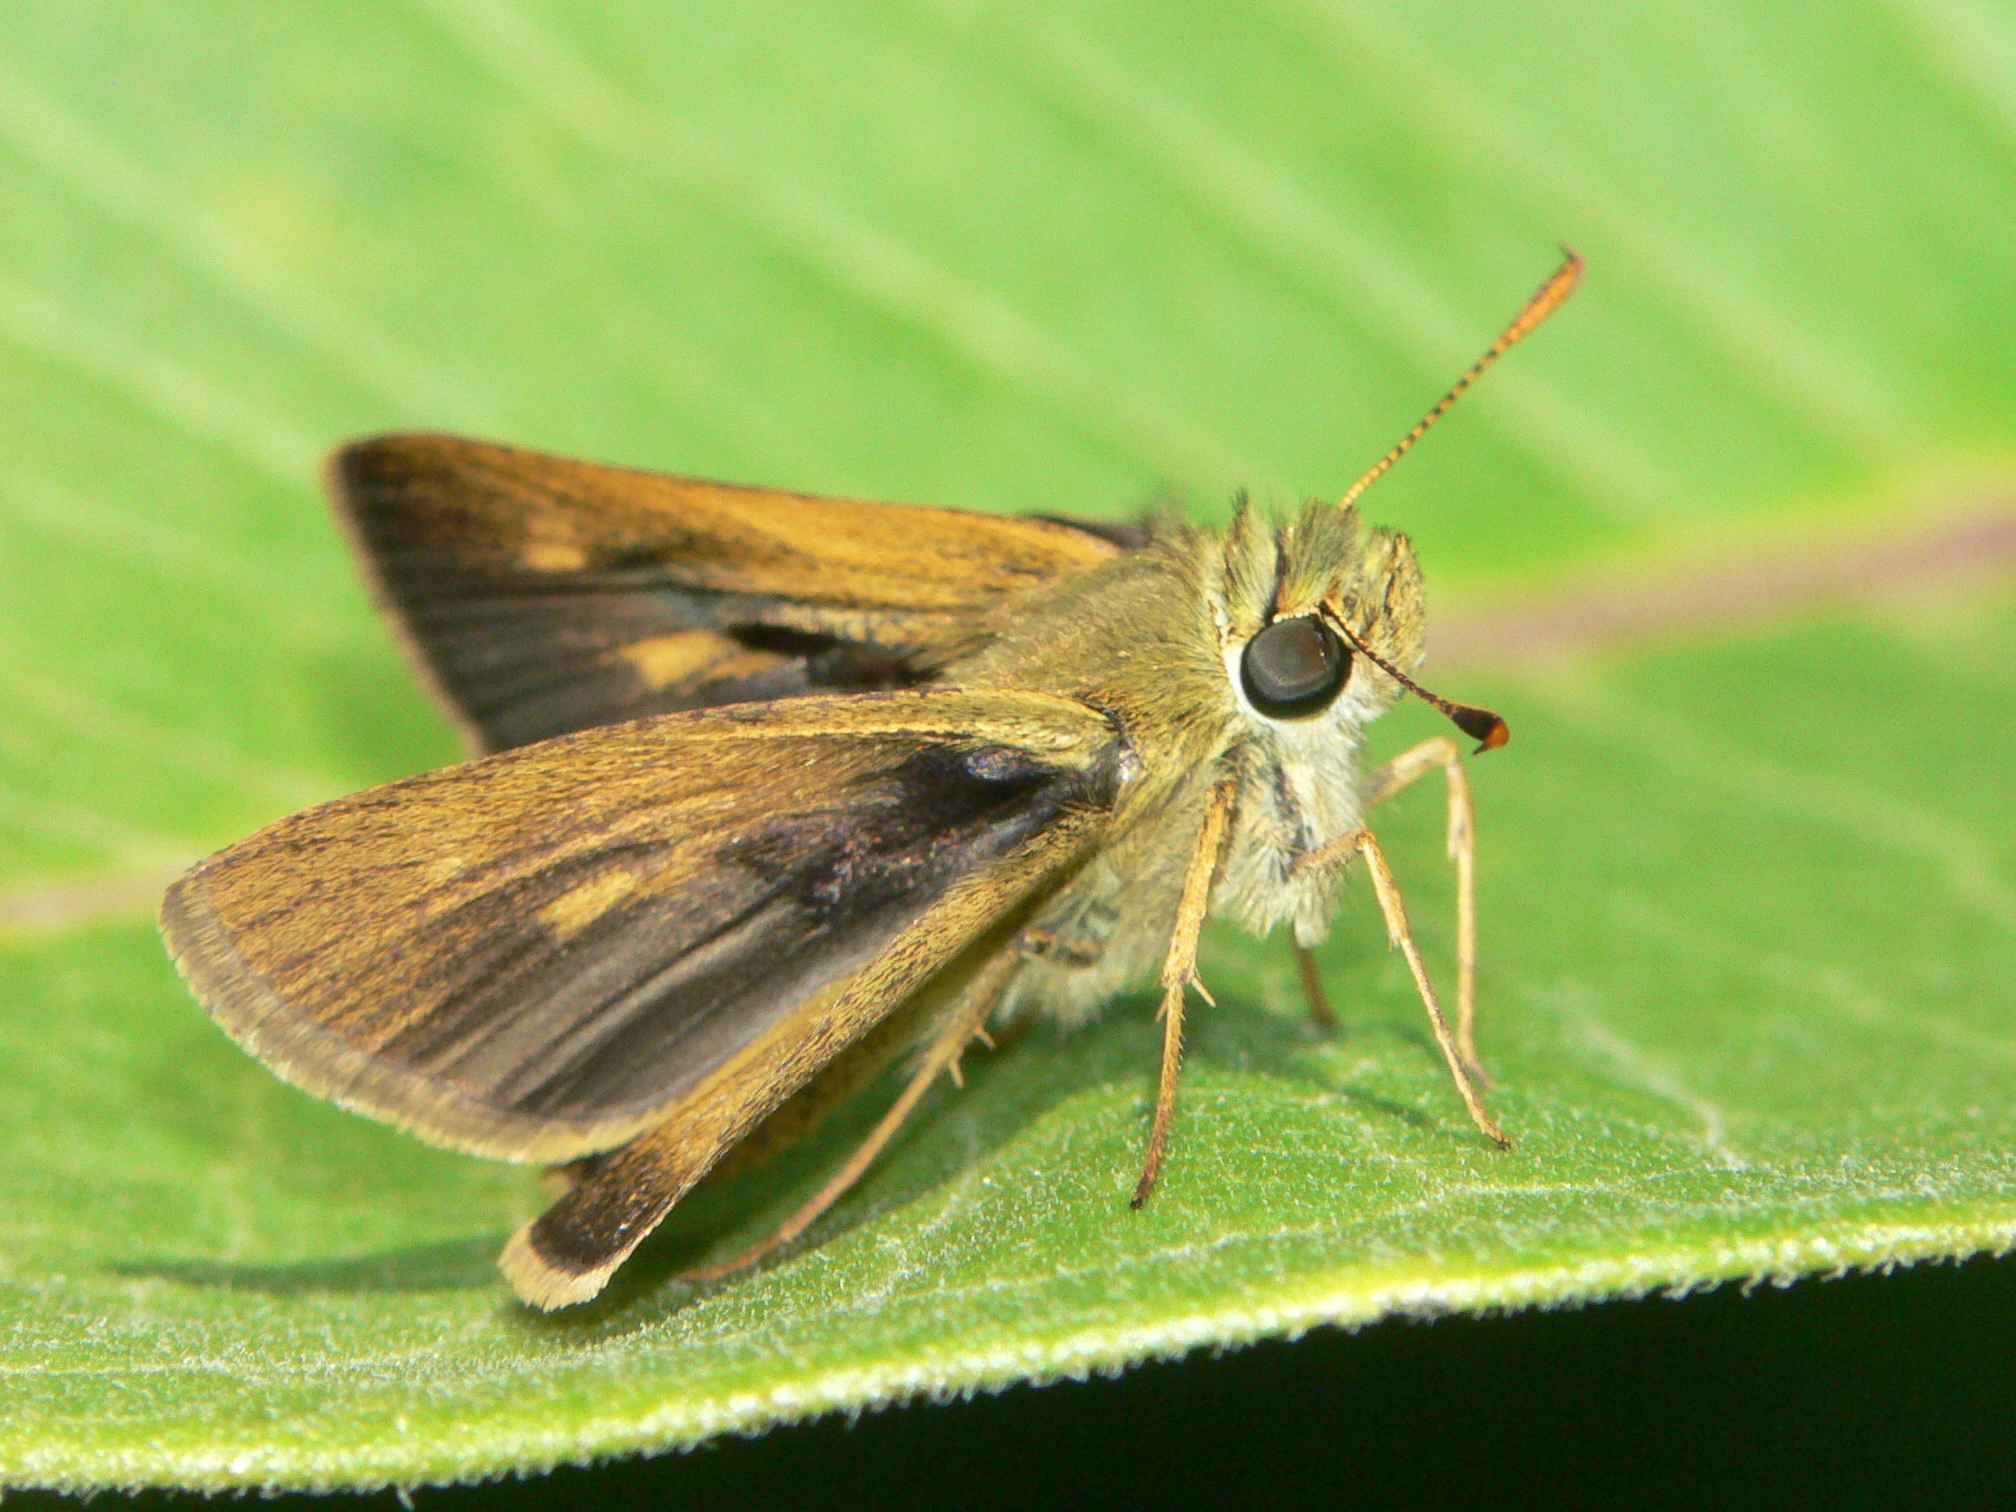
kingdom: Animalia
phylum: Arthropoda
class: Insecta
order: Lepidoptera
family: Hesperiidae
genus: Polites
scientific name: Polites egeremet
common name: Northern broken-dash
